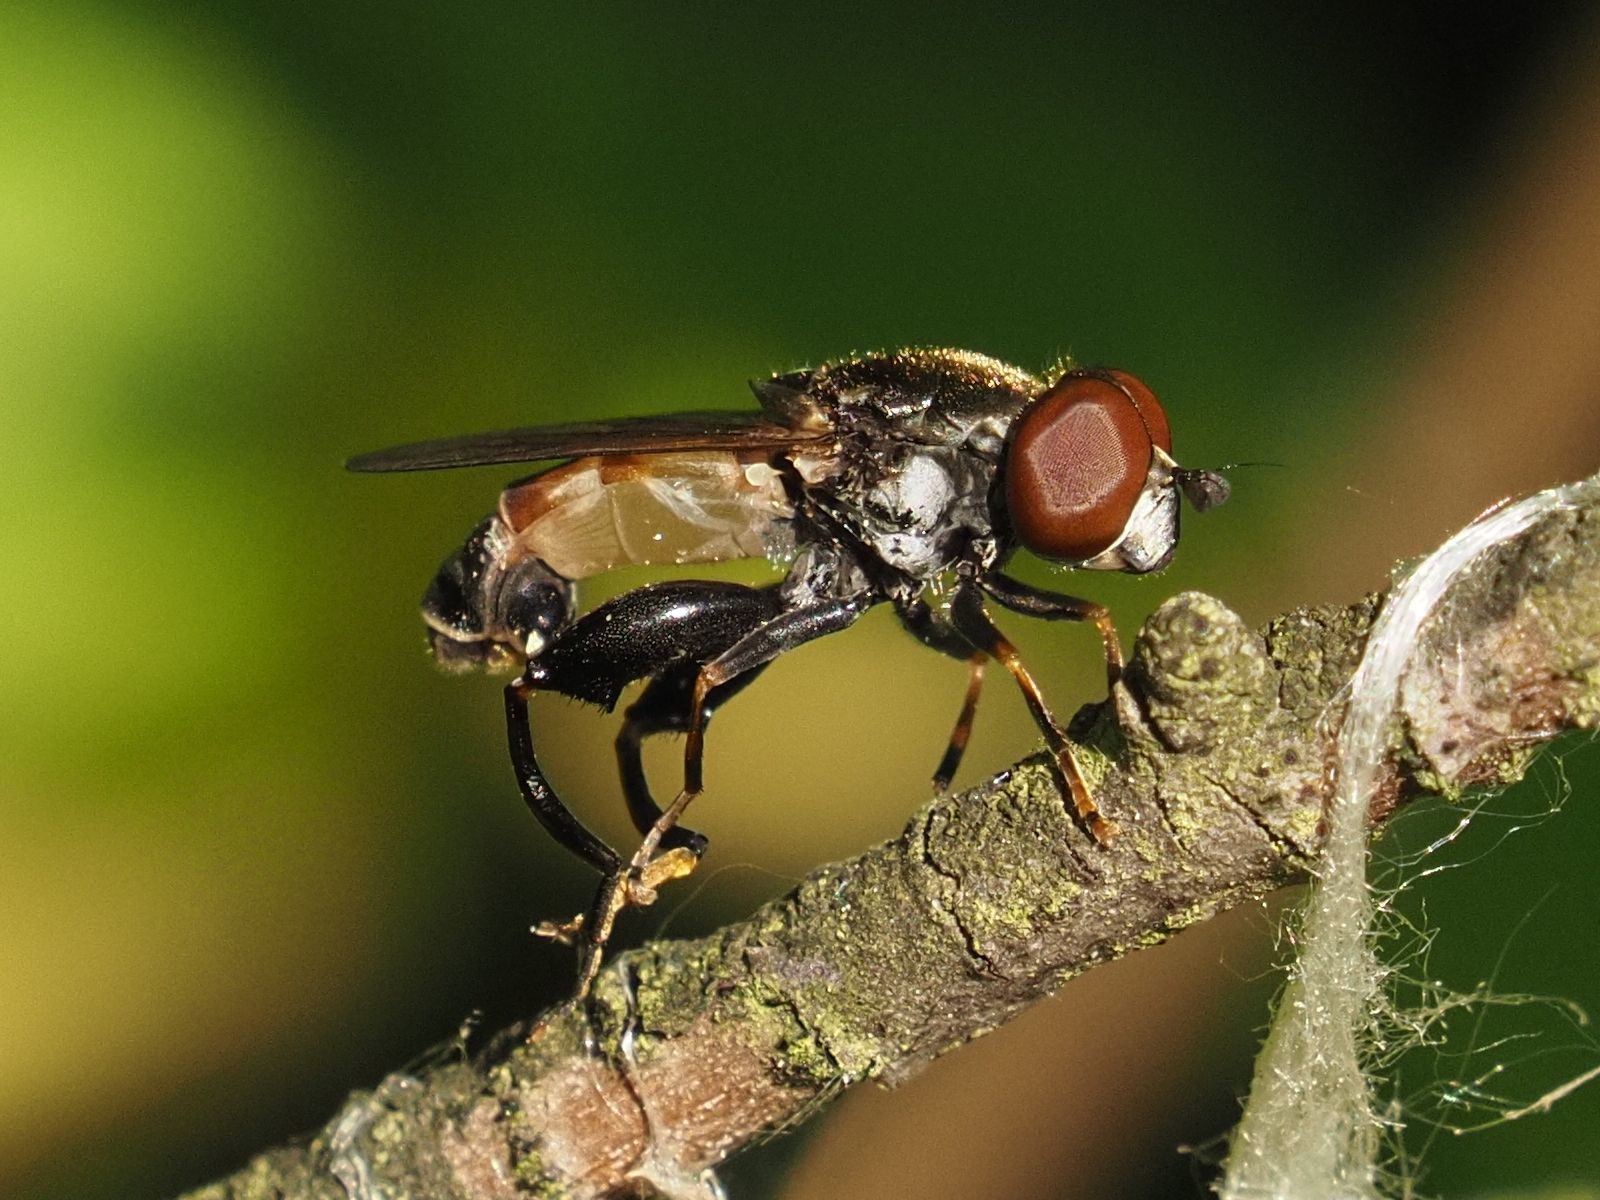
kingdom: Animalia
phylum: Arthropoda
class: Insecta
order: Diptera
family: Syrphidae
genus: Tropidia
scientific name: Tropidia scita
